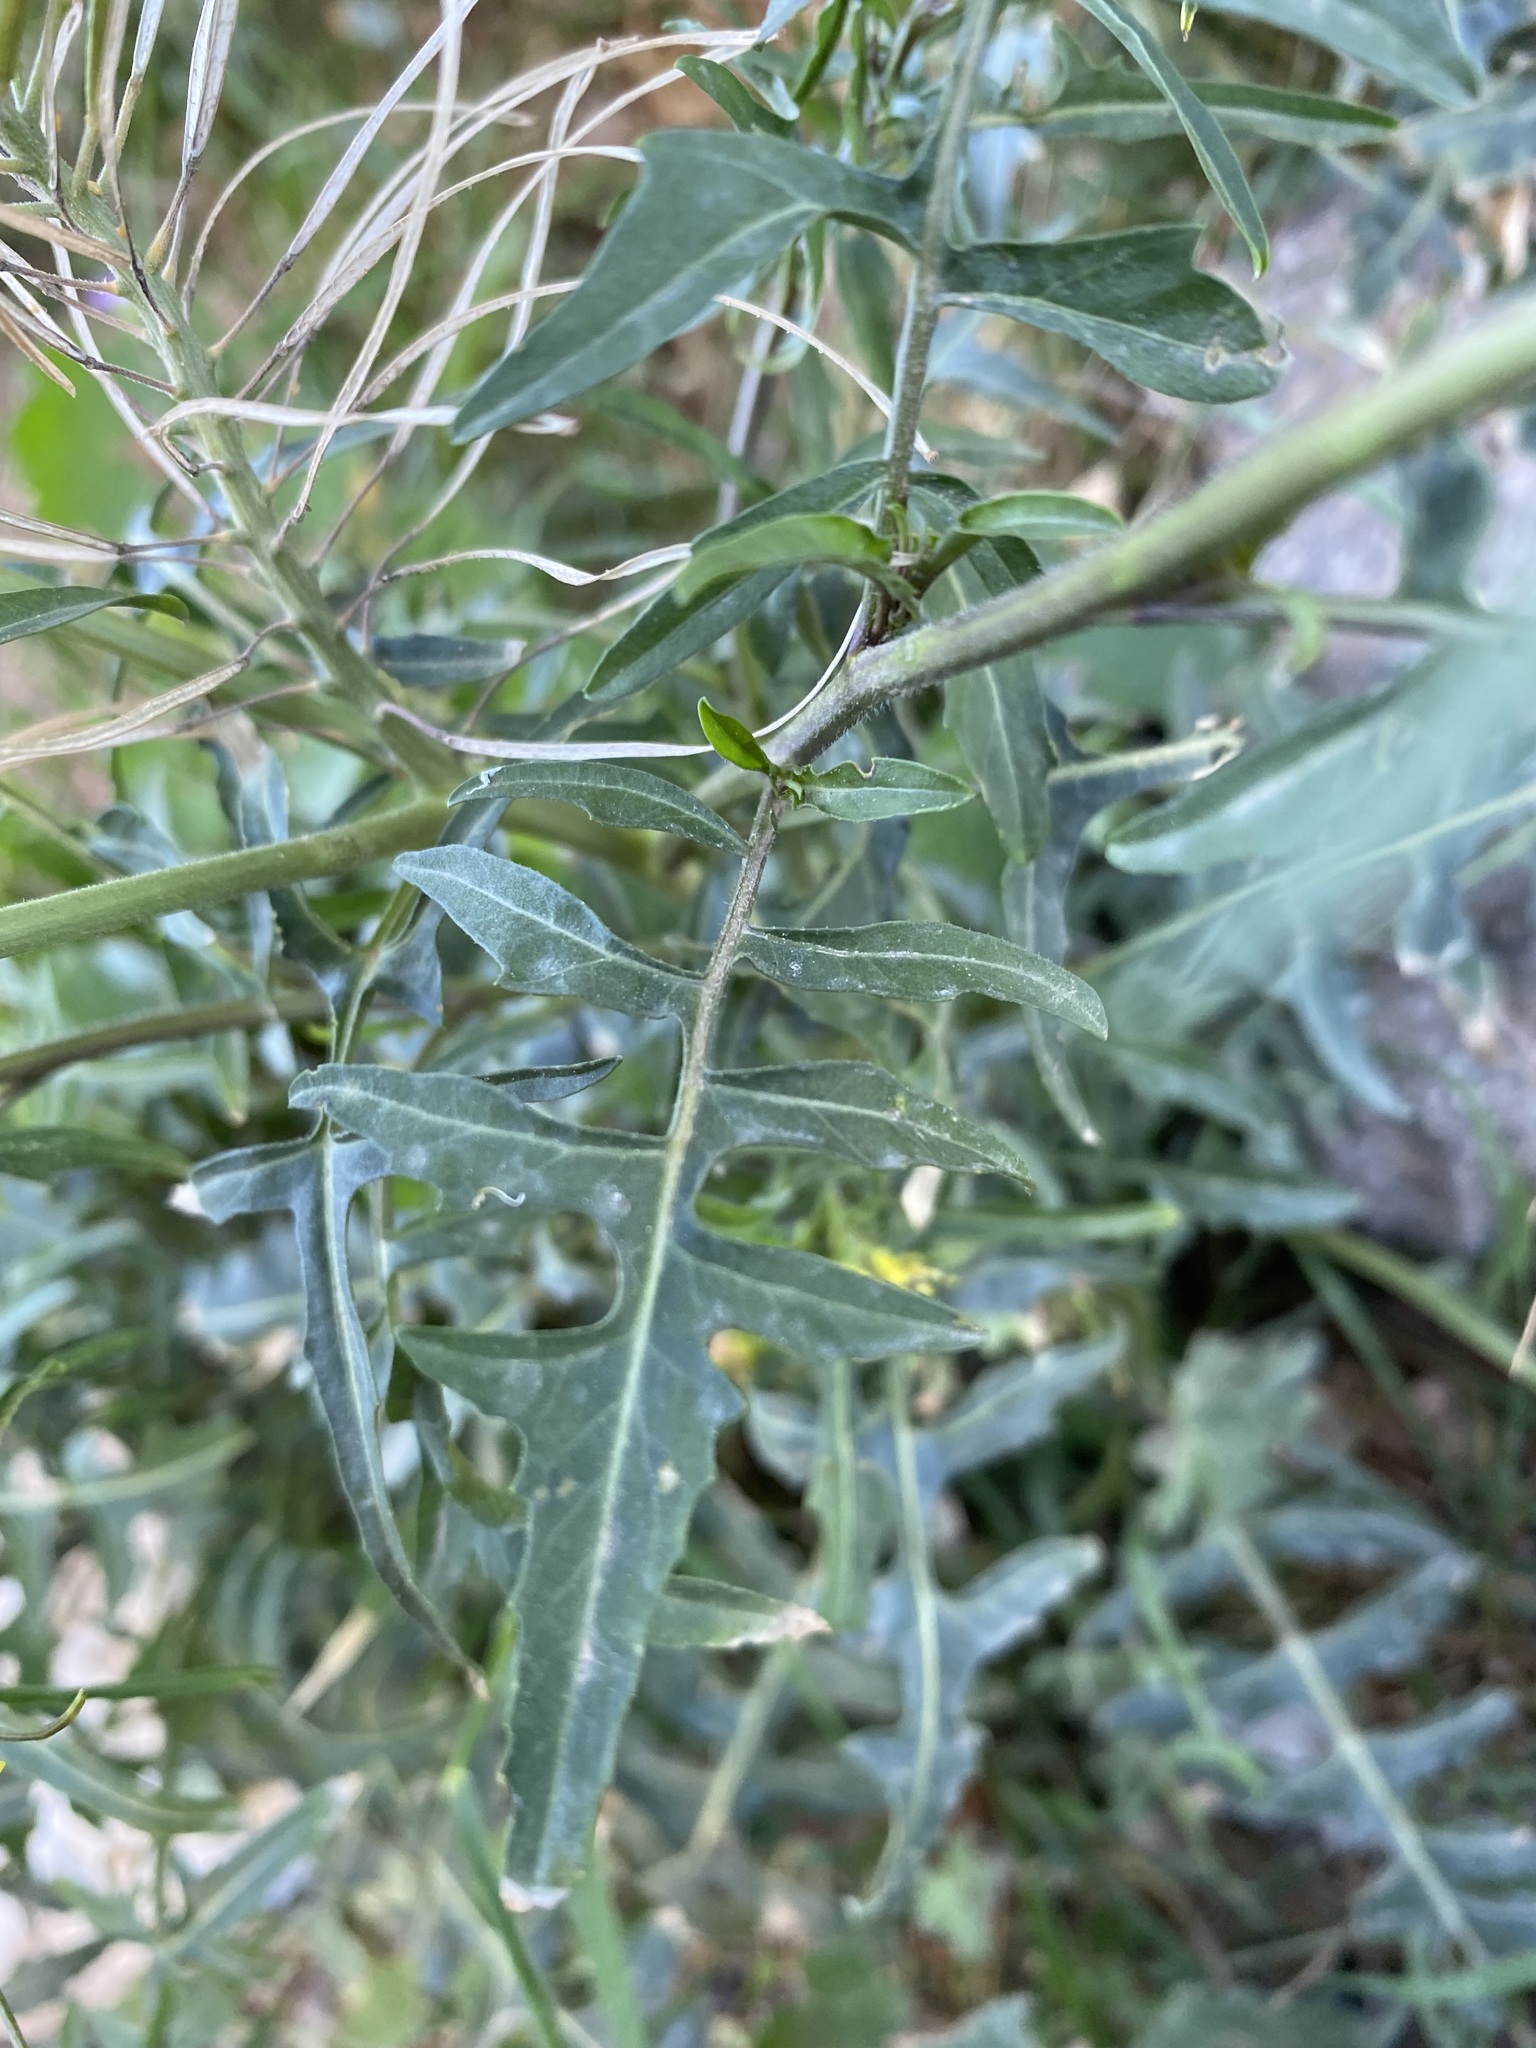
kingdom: Plantae
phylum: Tracheophyta
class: Magnoliopsida
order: Brassicales
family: Brassicaceae
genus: Sisymbrium
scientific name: Sisymbrium irio
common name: London rocket
